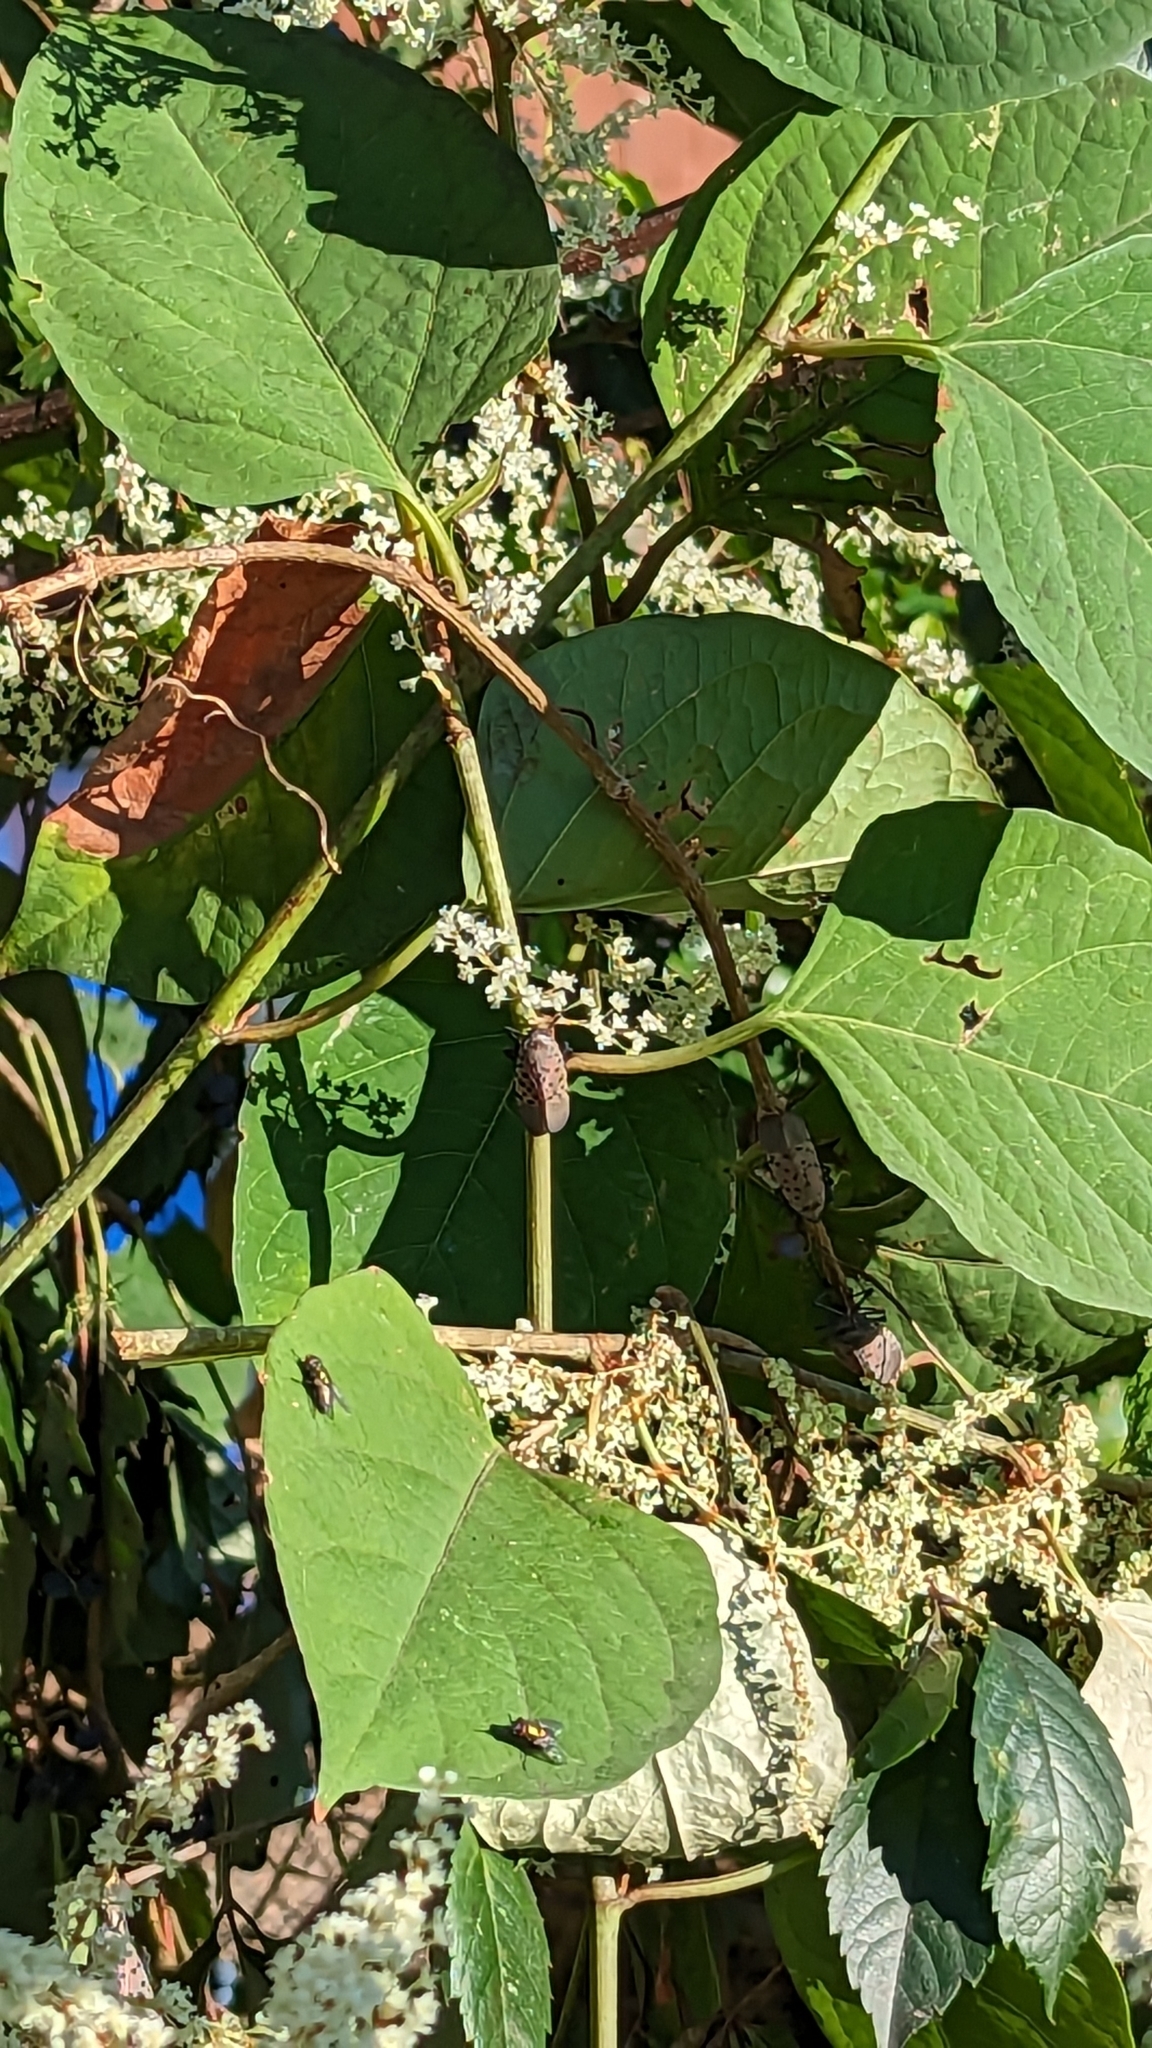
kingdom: Animalia
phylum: Arthropoda
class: Insecta
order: Hemiptera
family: Fulgoridae
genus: Lycorma
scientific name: Lycorma delicatula
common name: Spotted lanternfly
